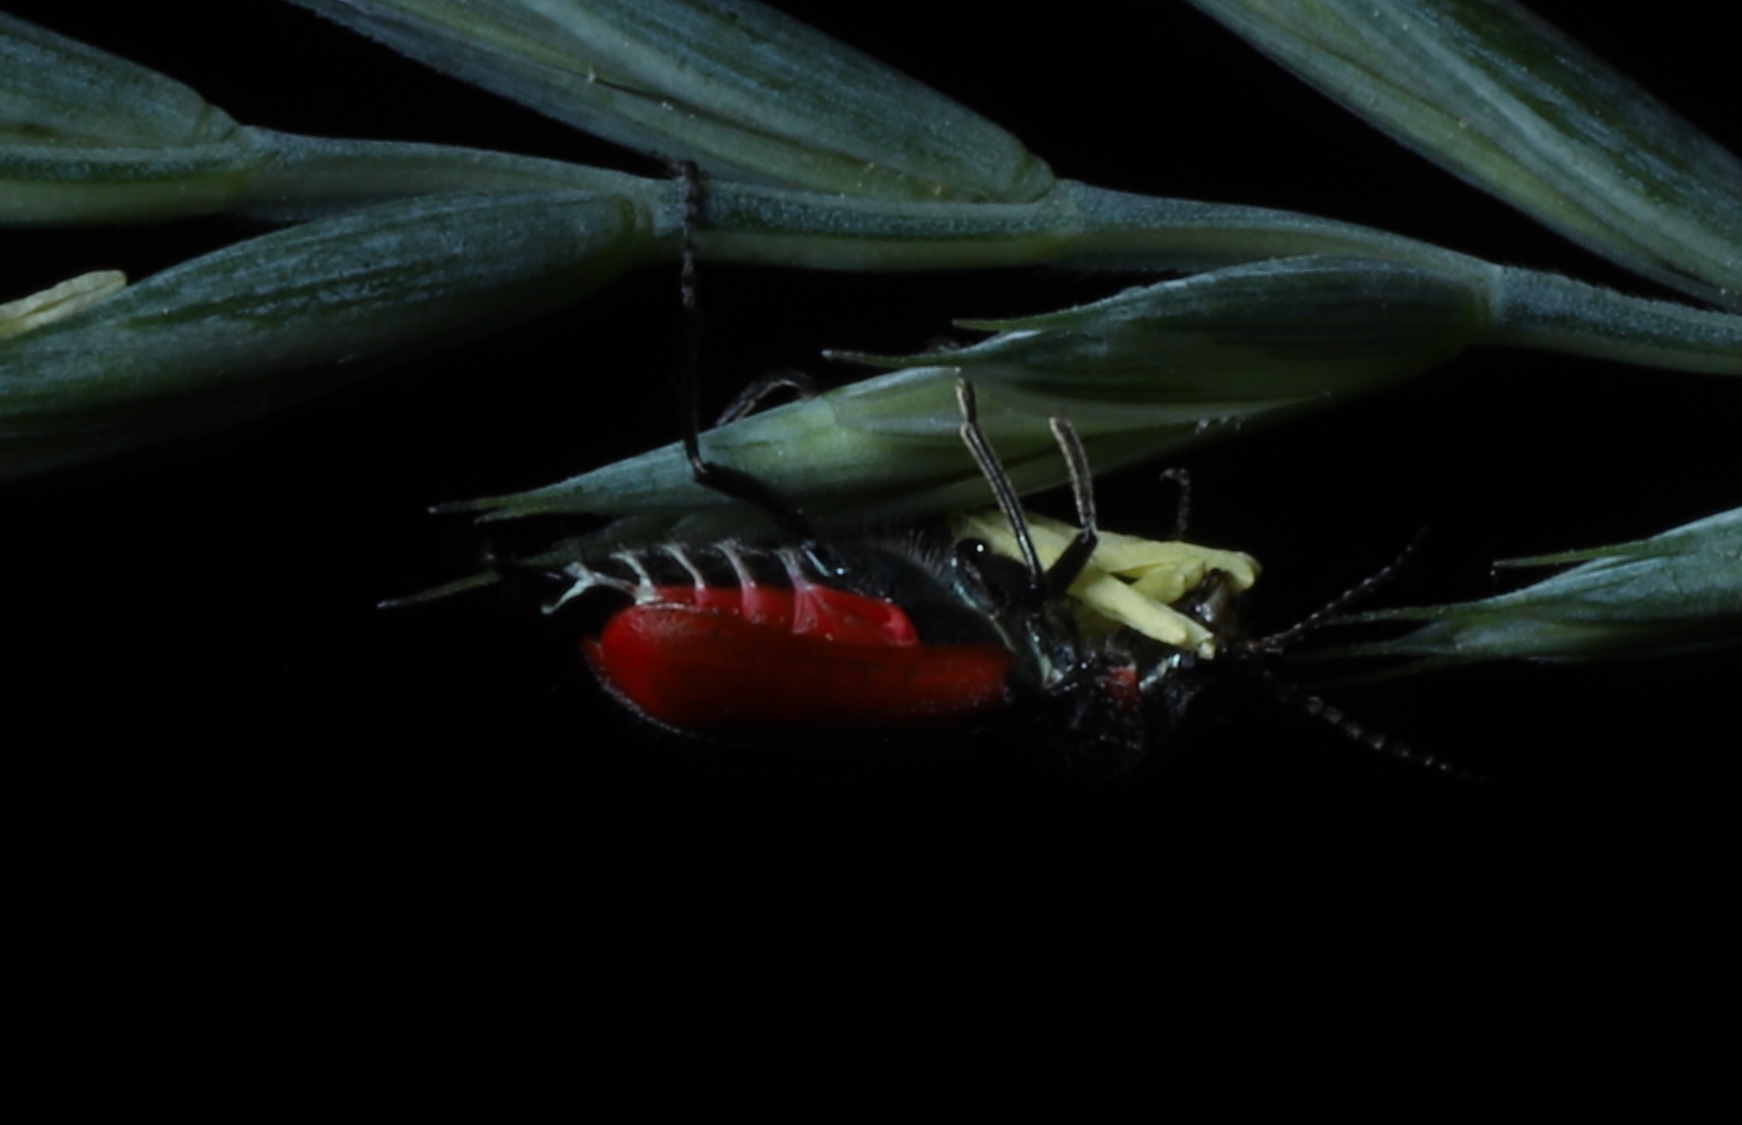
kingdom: Animalia
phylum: Arthropoda
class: Insecta
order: Coleoptera
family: Melyridae
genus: Malachius
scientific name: Malachius aeneus
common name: Scarlet malachite beetle
